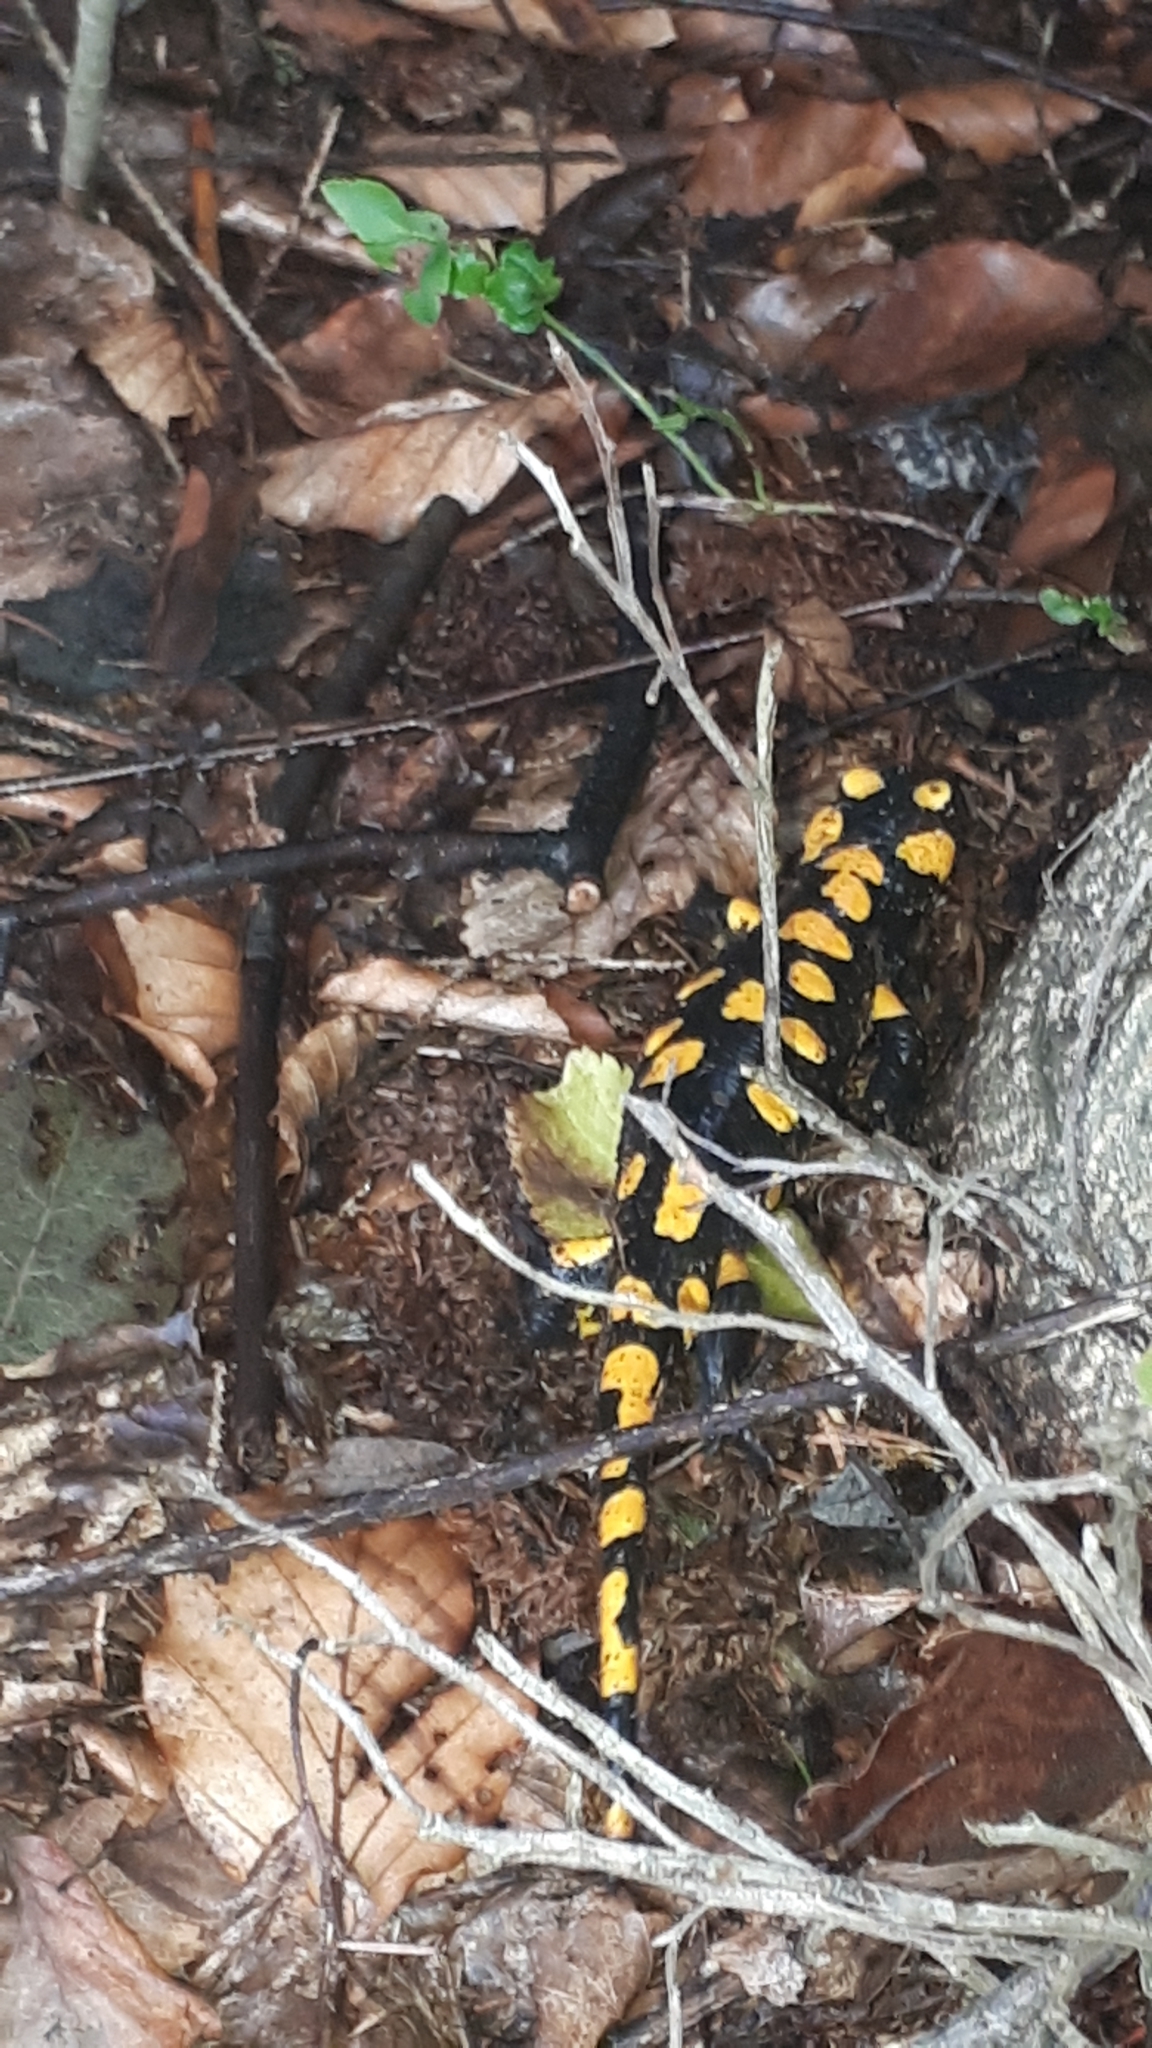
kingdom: Animalia
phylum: Chordata
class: Amphibia
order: Caudata
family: Salamandridae
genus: Salamandra
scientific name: Salamandra salamandra
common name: Fire salamander
